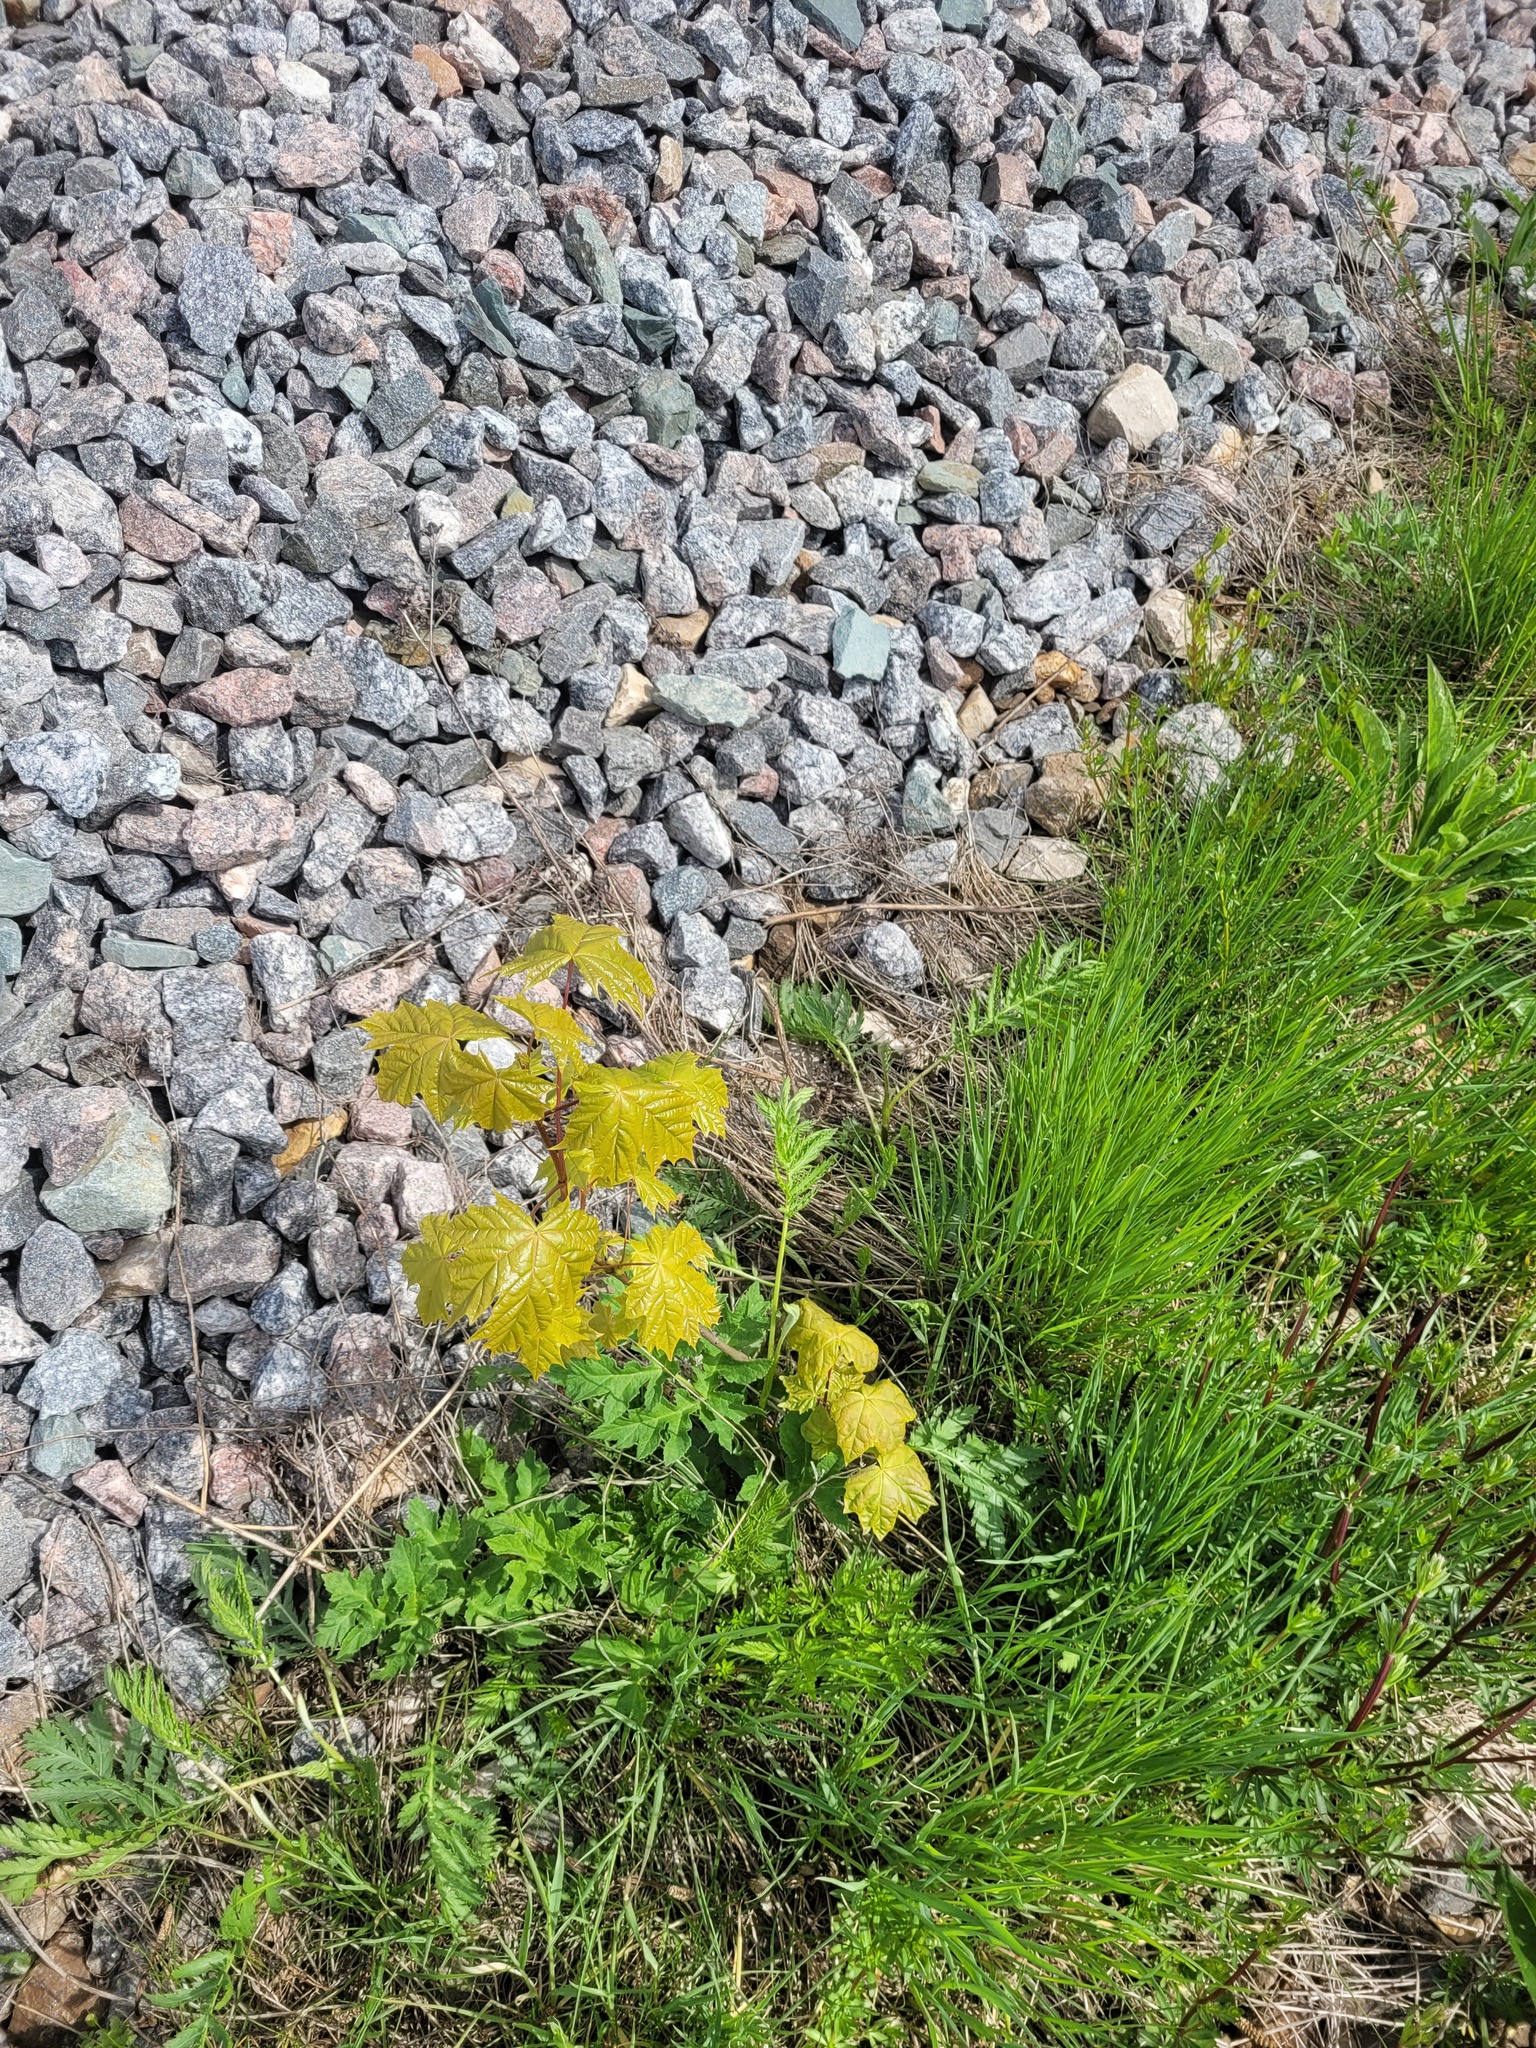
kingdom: Plantae
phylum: Tracheophyta
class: Magnoliopsida
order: Sapindales
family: Sapindaceae
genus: Acer
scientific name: Acer platanoides
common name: Norway maple
